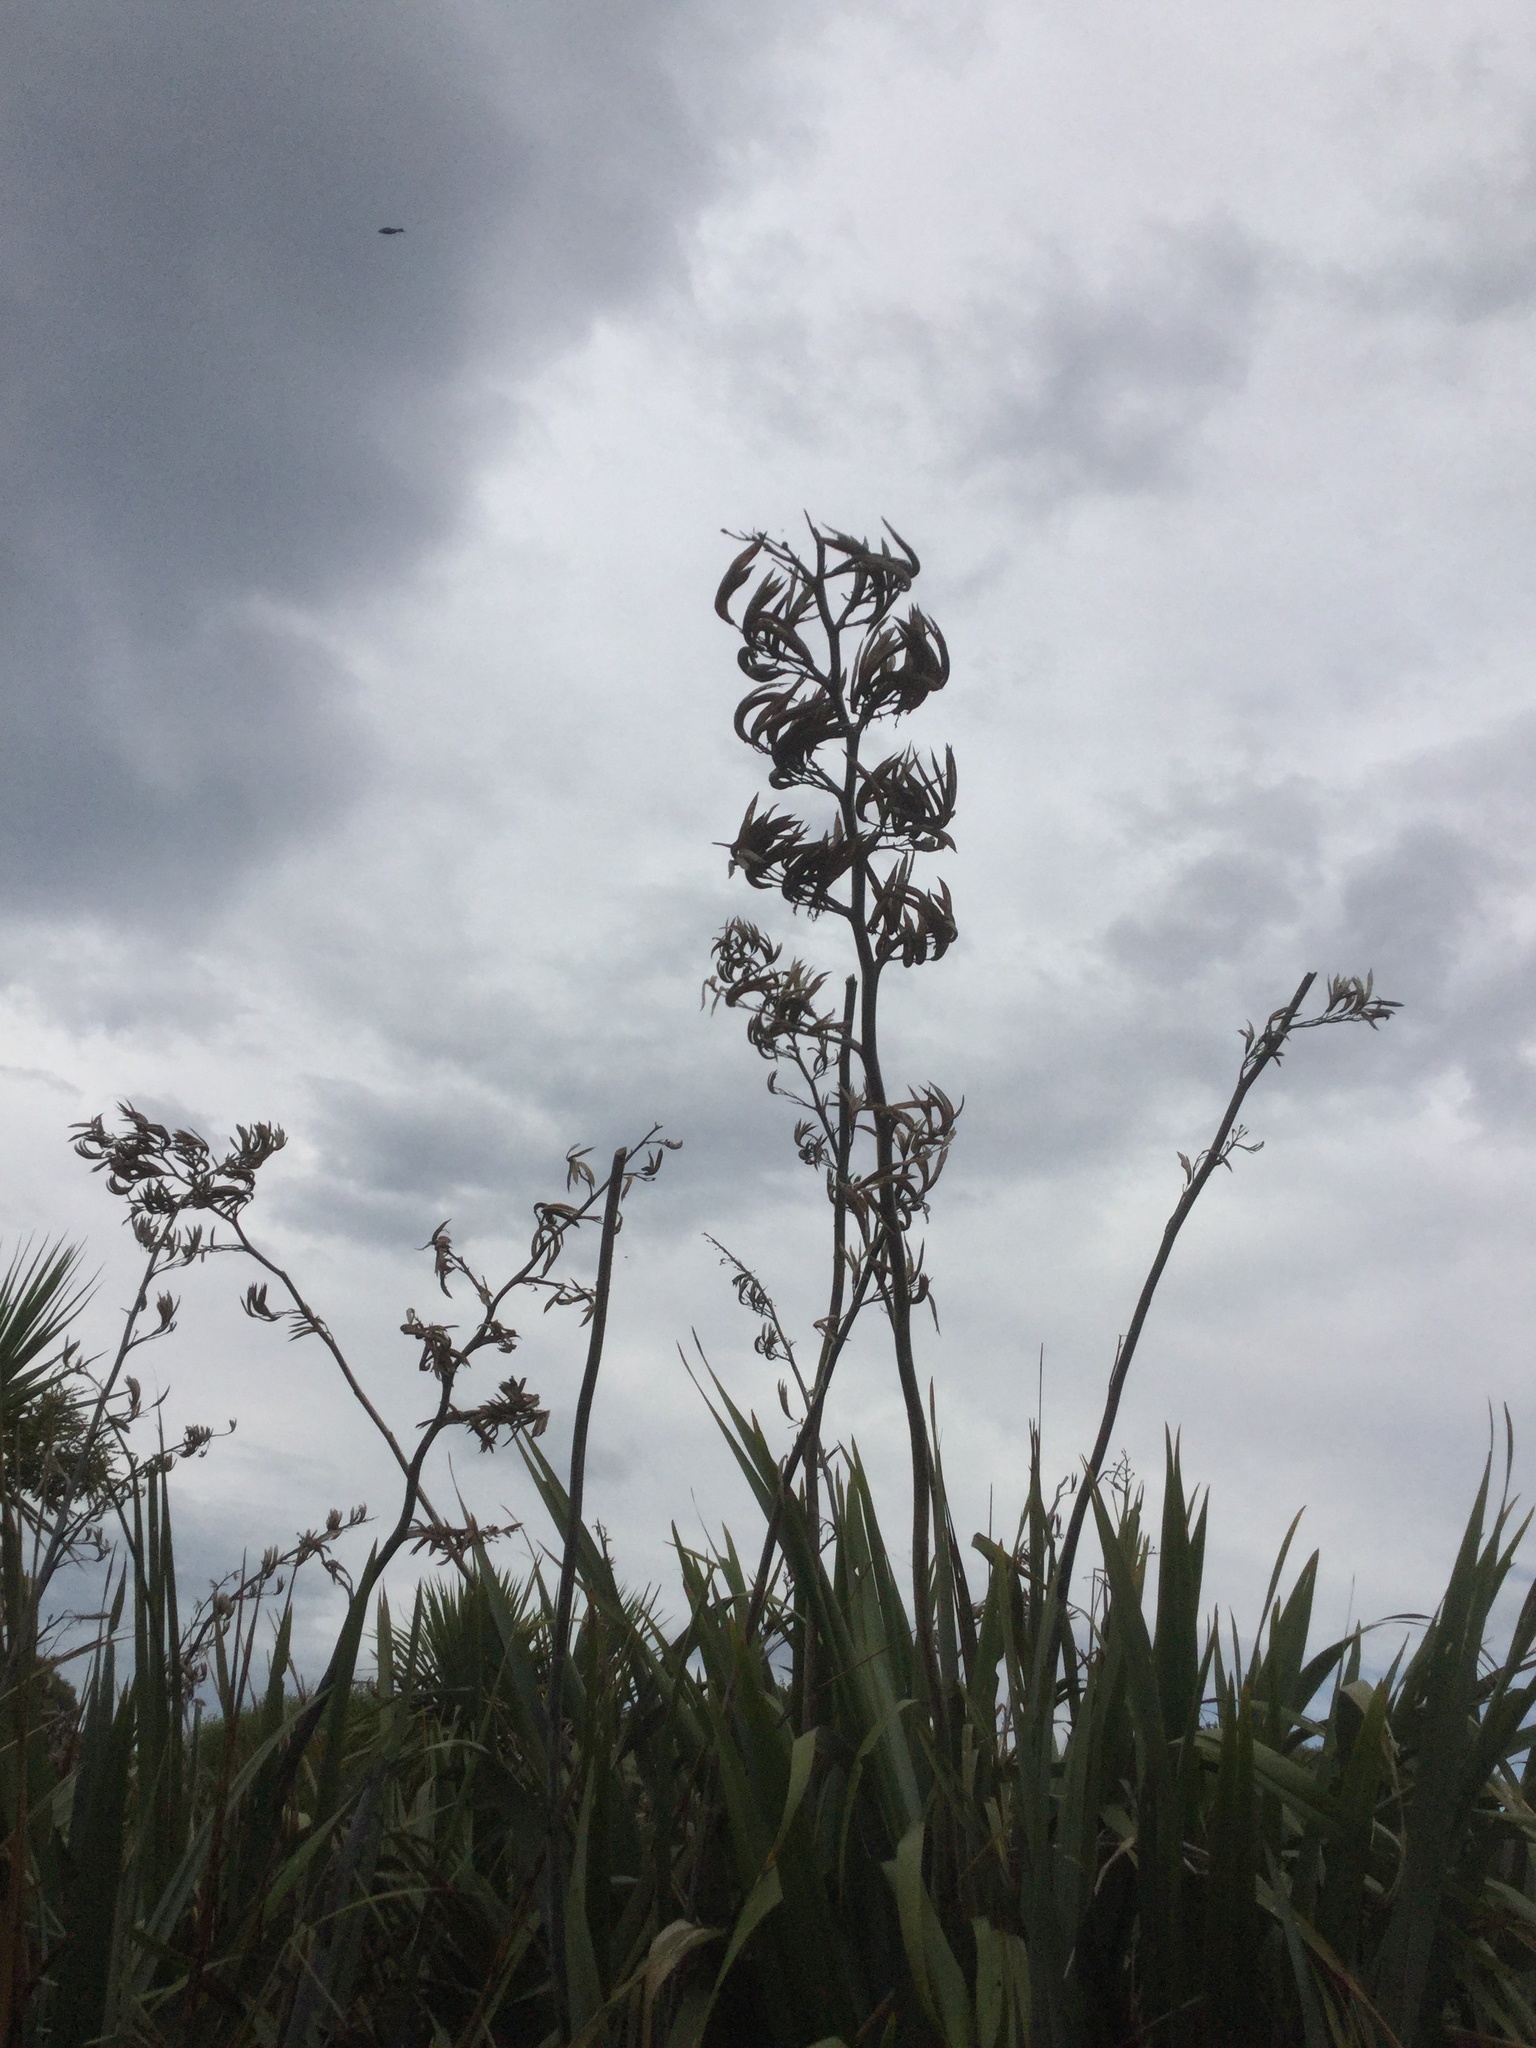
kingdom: Plantae
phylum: Tracheophyta
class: Liliopsida
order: Asparagales
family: Asphodelaceae
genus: Phormium
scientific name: Phormium tenax
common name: New zealand flax
